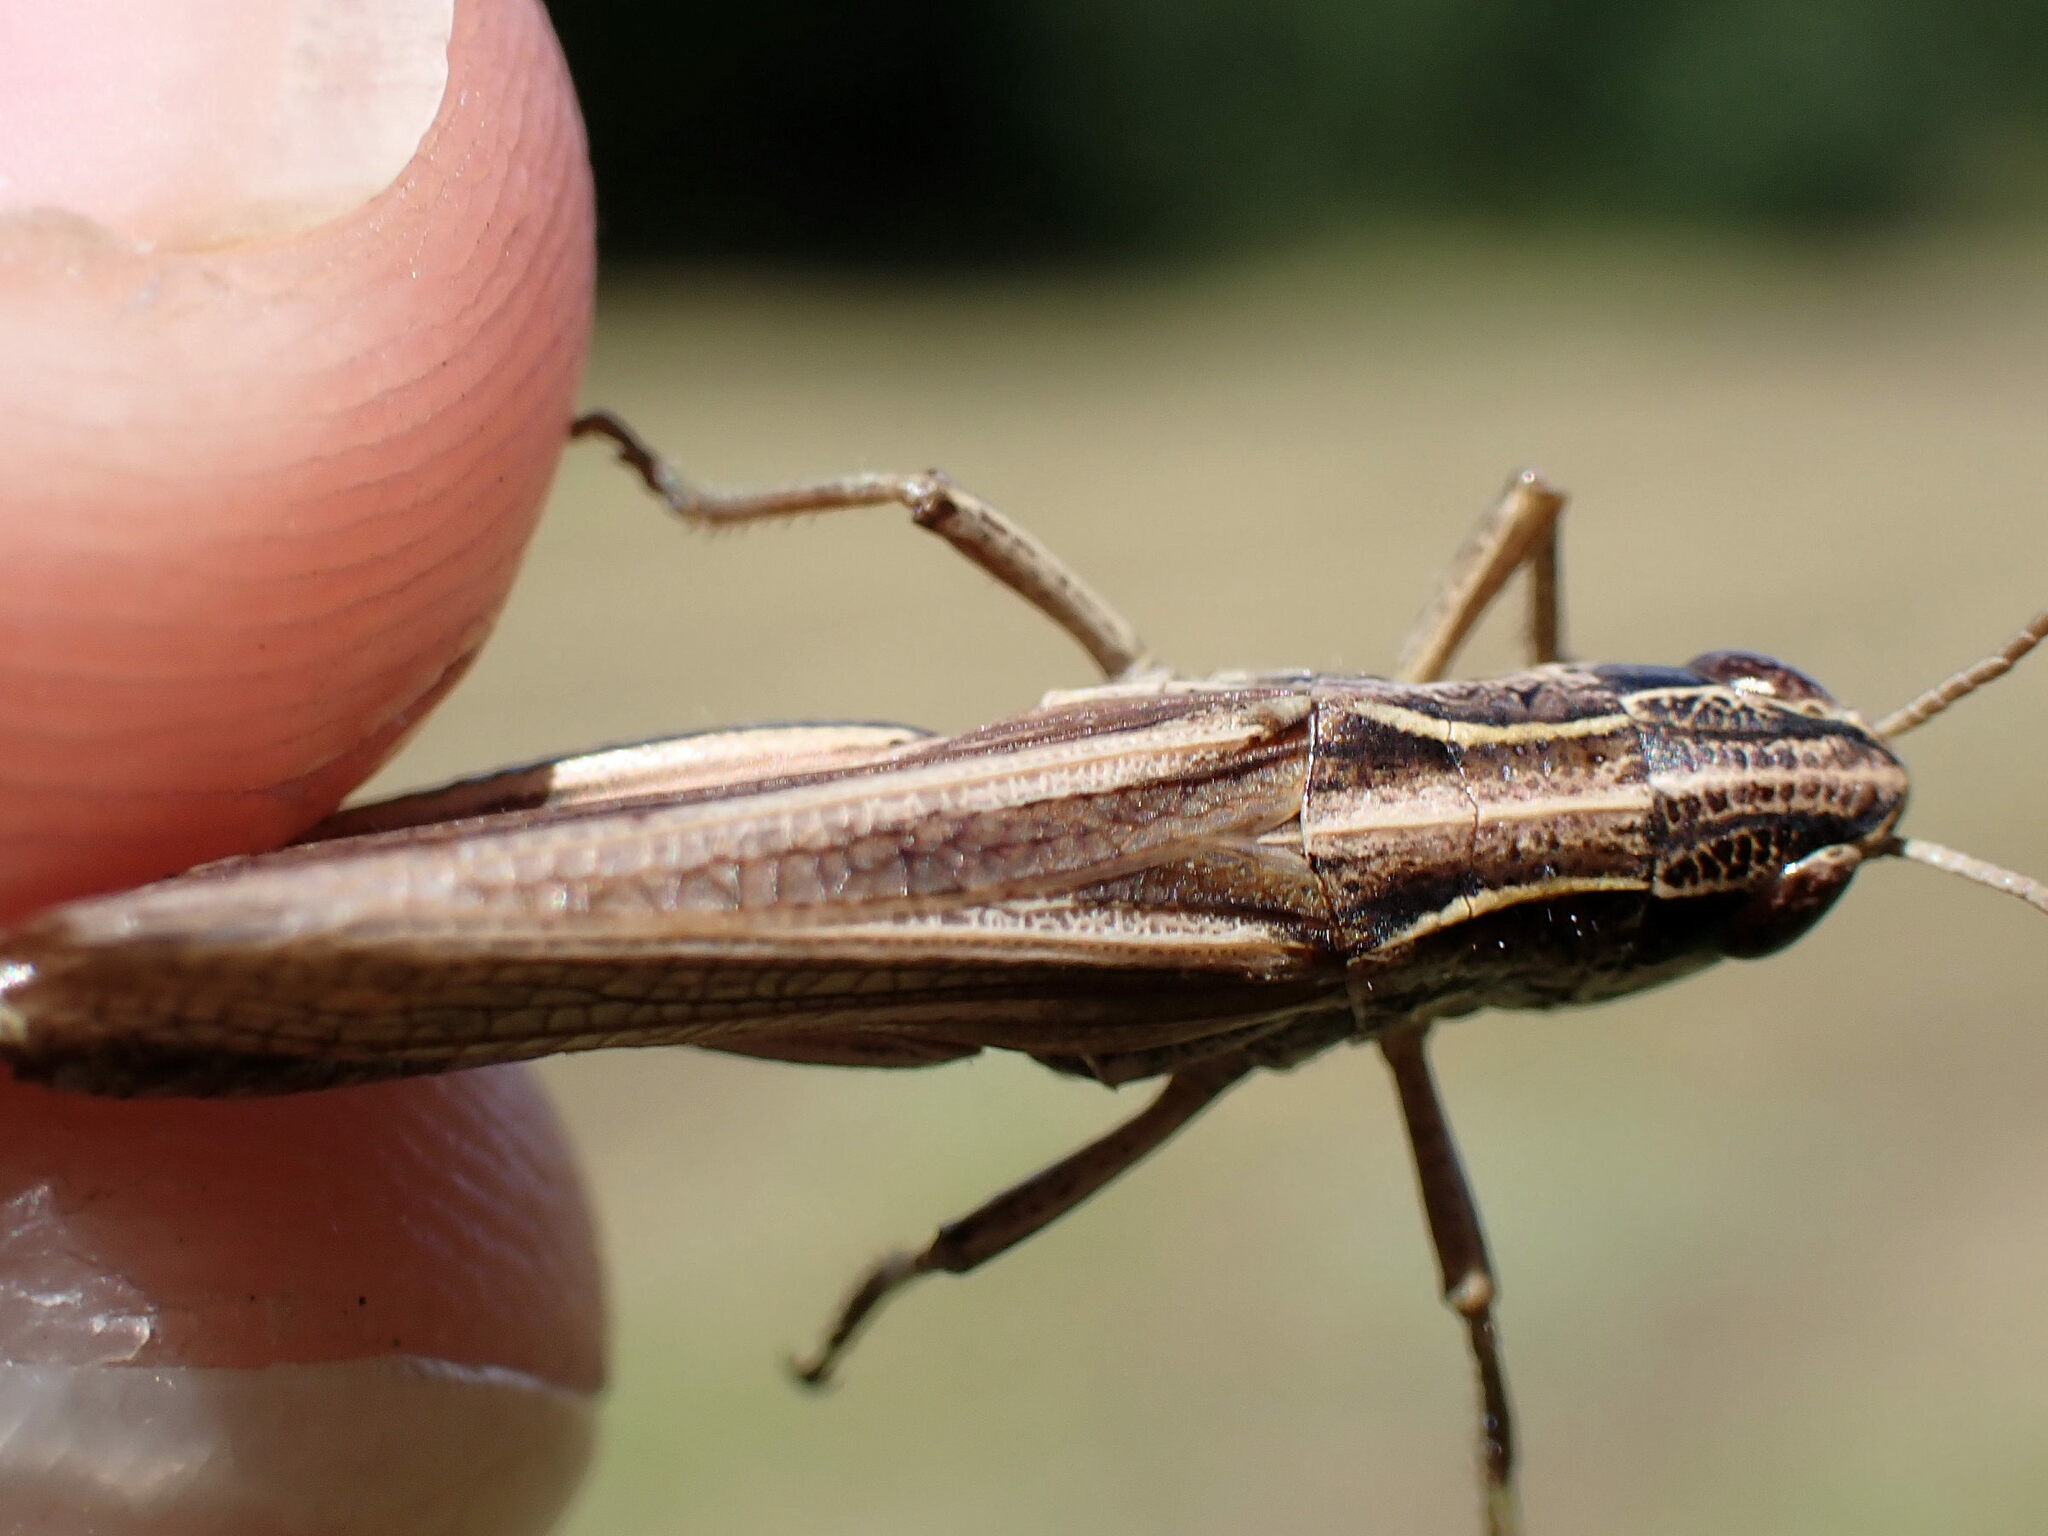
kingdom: Animalia
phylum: Arthropoda
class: Insecta
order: Orthoptera
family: Acrididae
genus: Pseudochorthippus
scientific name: Pseudochorthippus parallelus
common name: Meadow grasshopper
